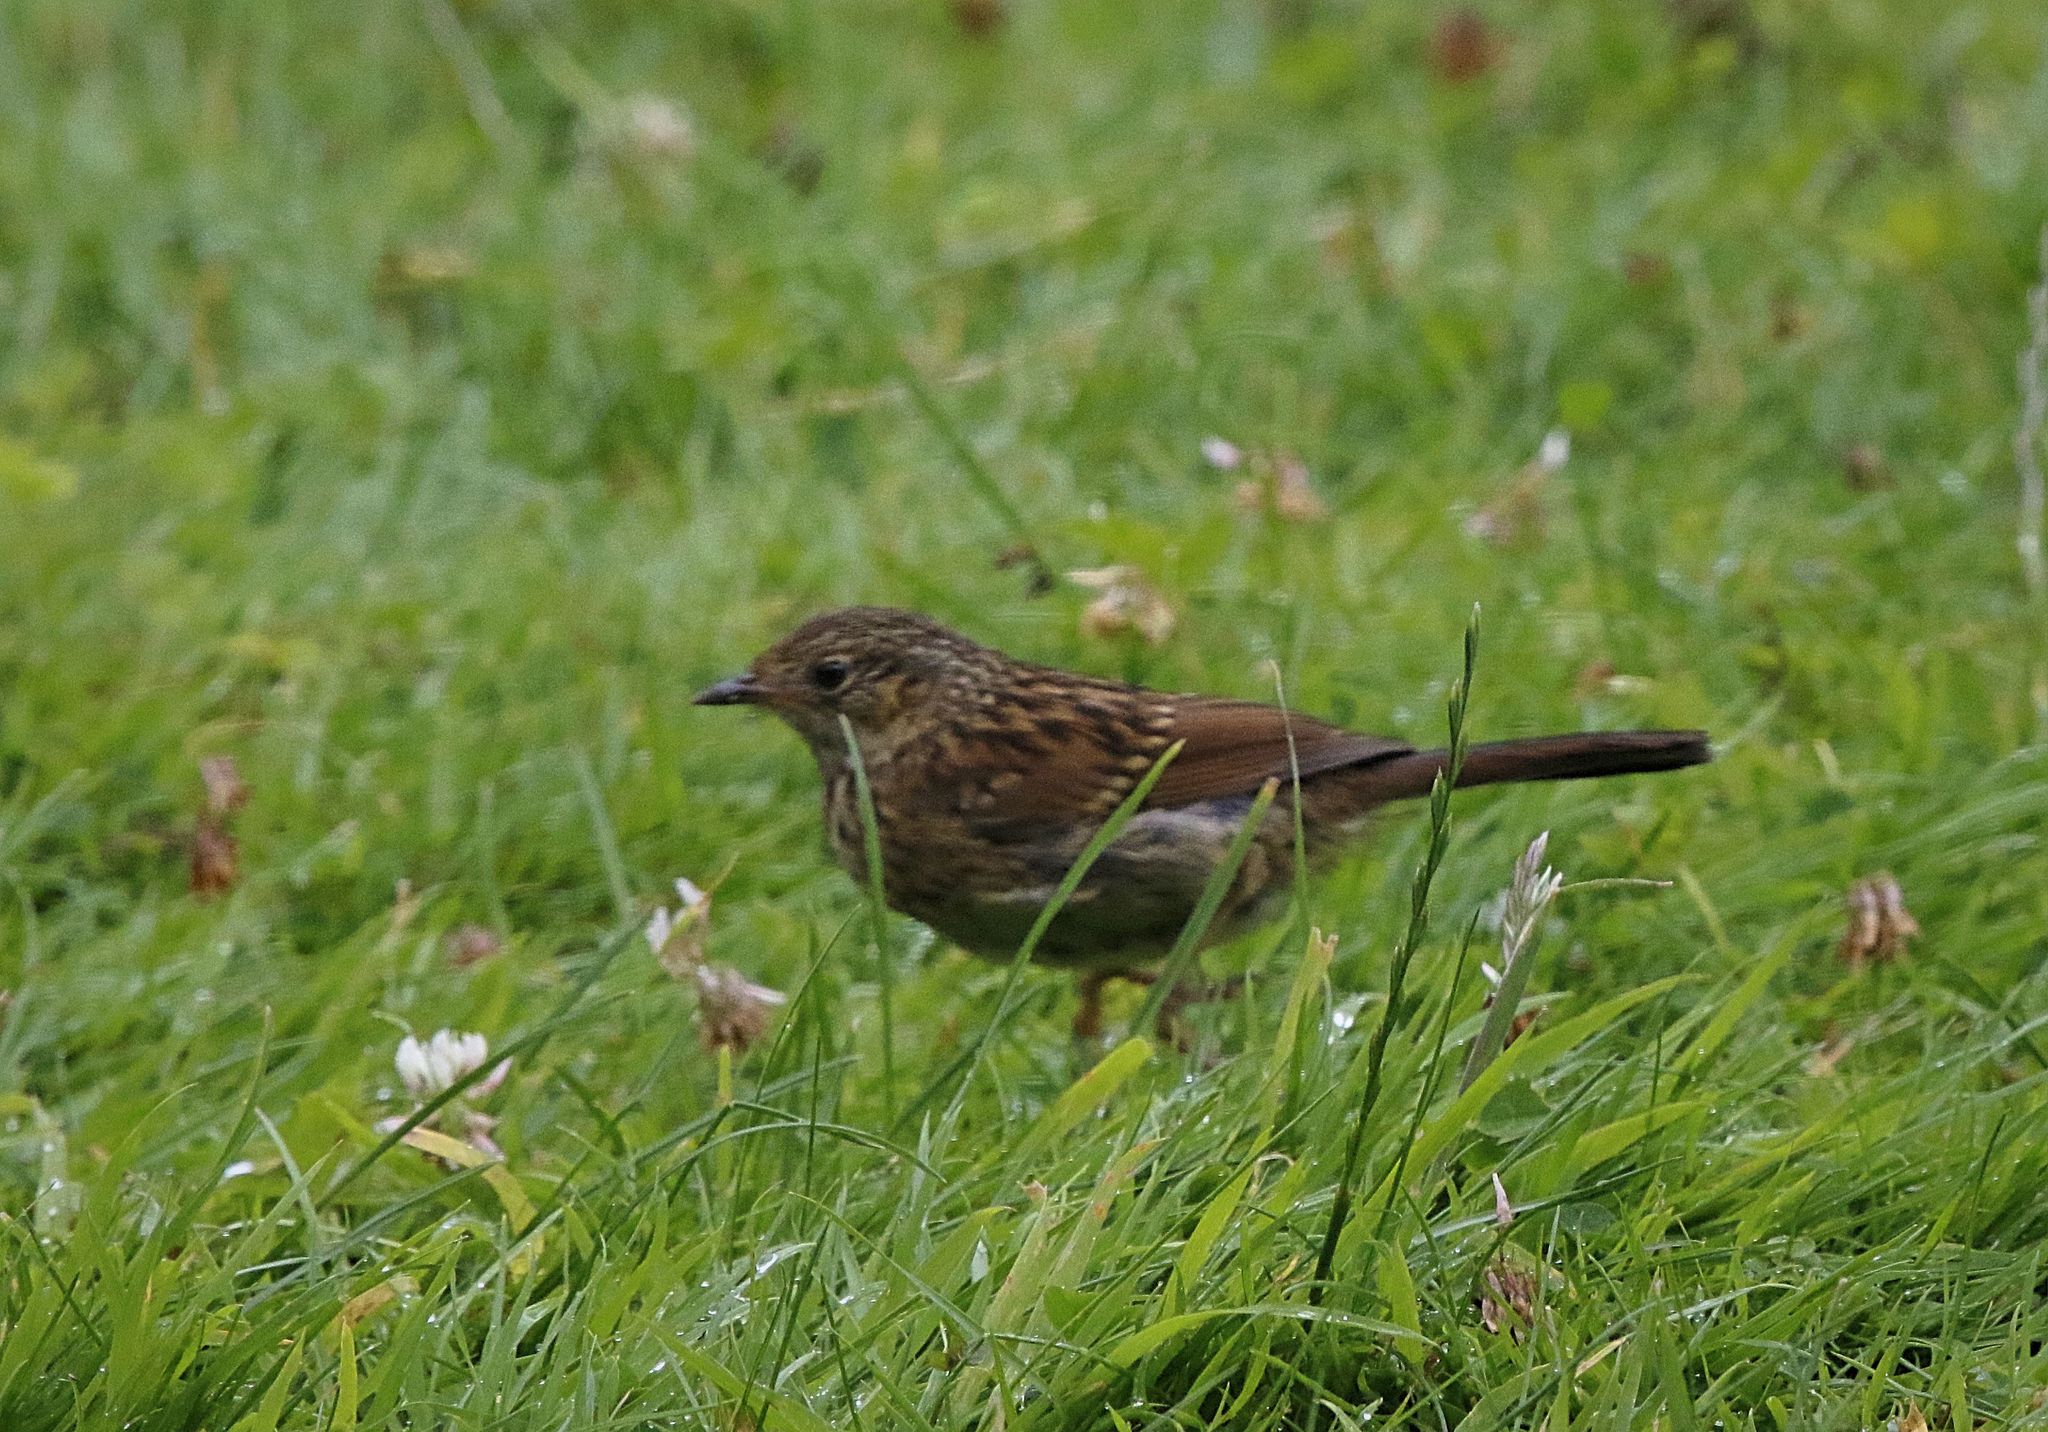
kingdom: Animalia
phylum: Chordata
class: Aves
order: Passeriformes
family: Prunellidae
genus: Prunella
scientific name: Prunella modularis
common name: Dunnock
